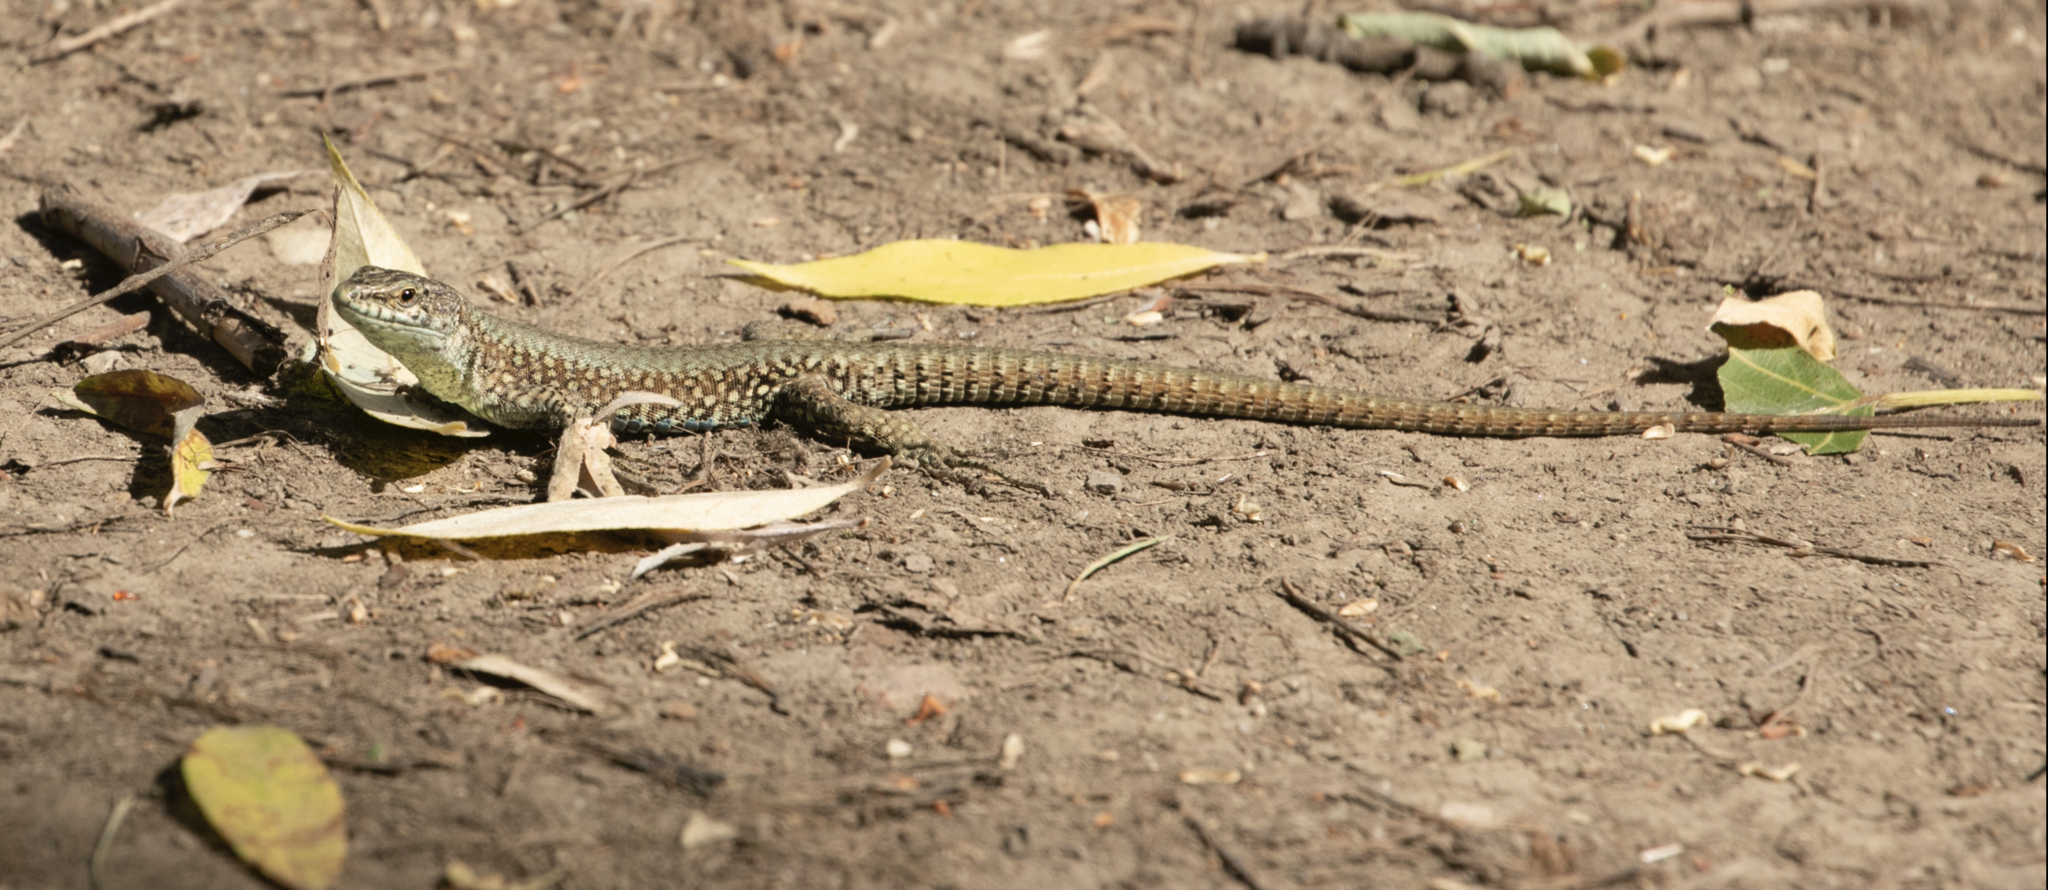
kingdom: Animalia
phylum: Chordata
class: Squamata
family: Lacertidae
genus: Podarcis
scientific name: Podarcis muralis
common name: Common wall lizard
